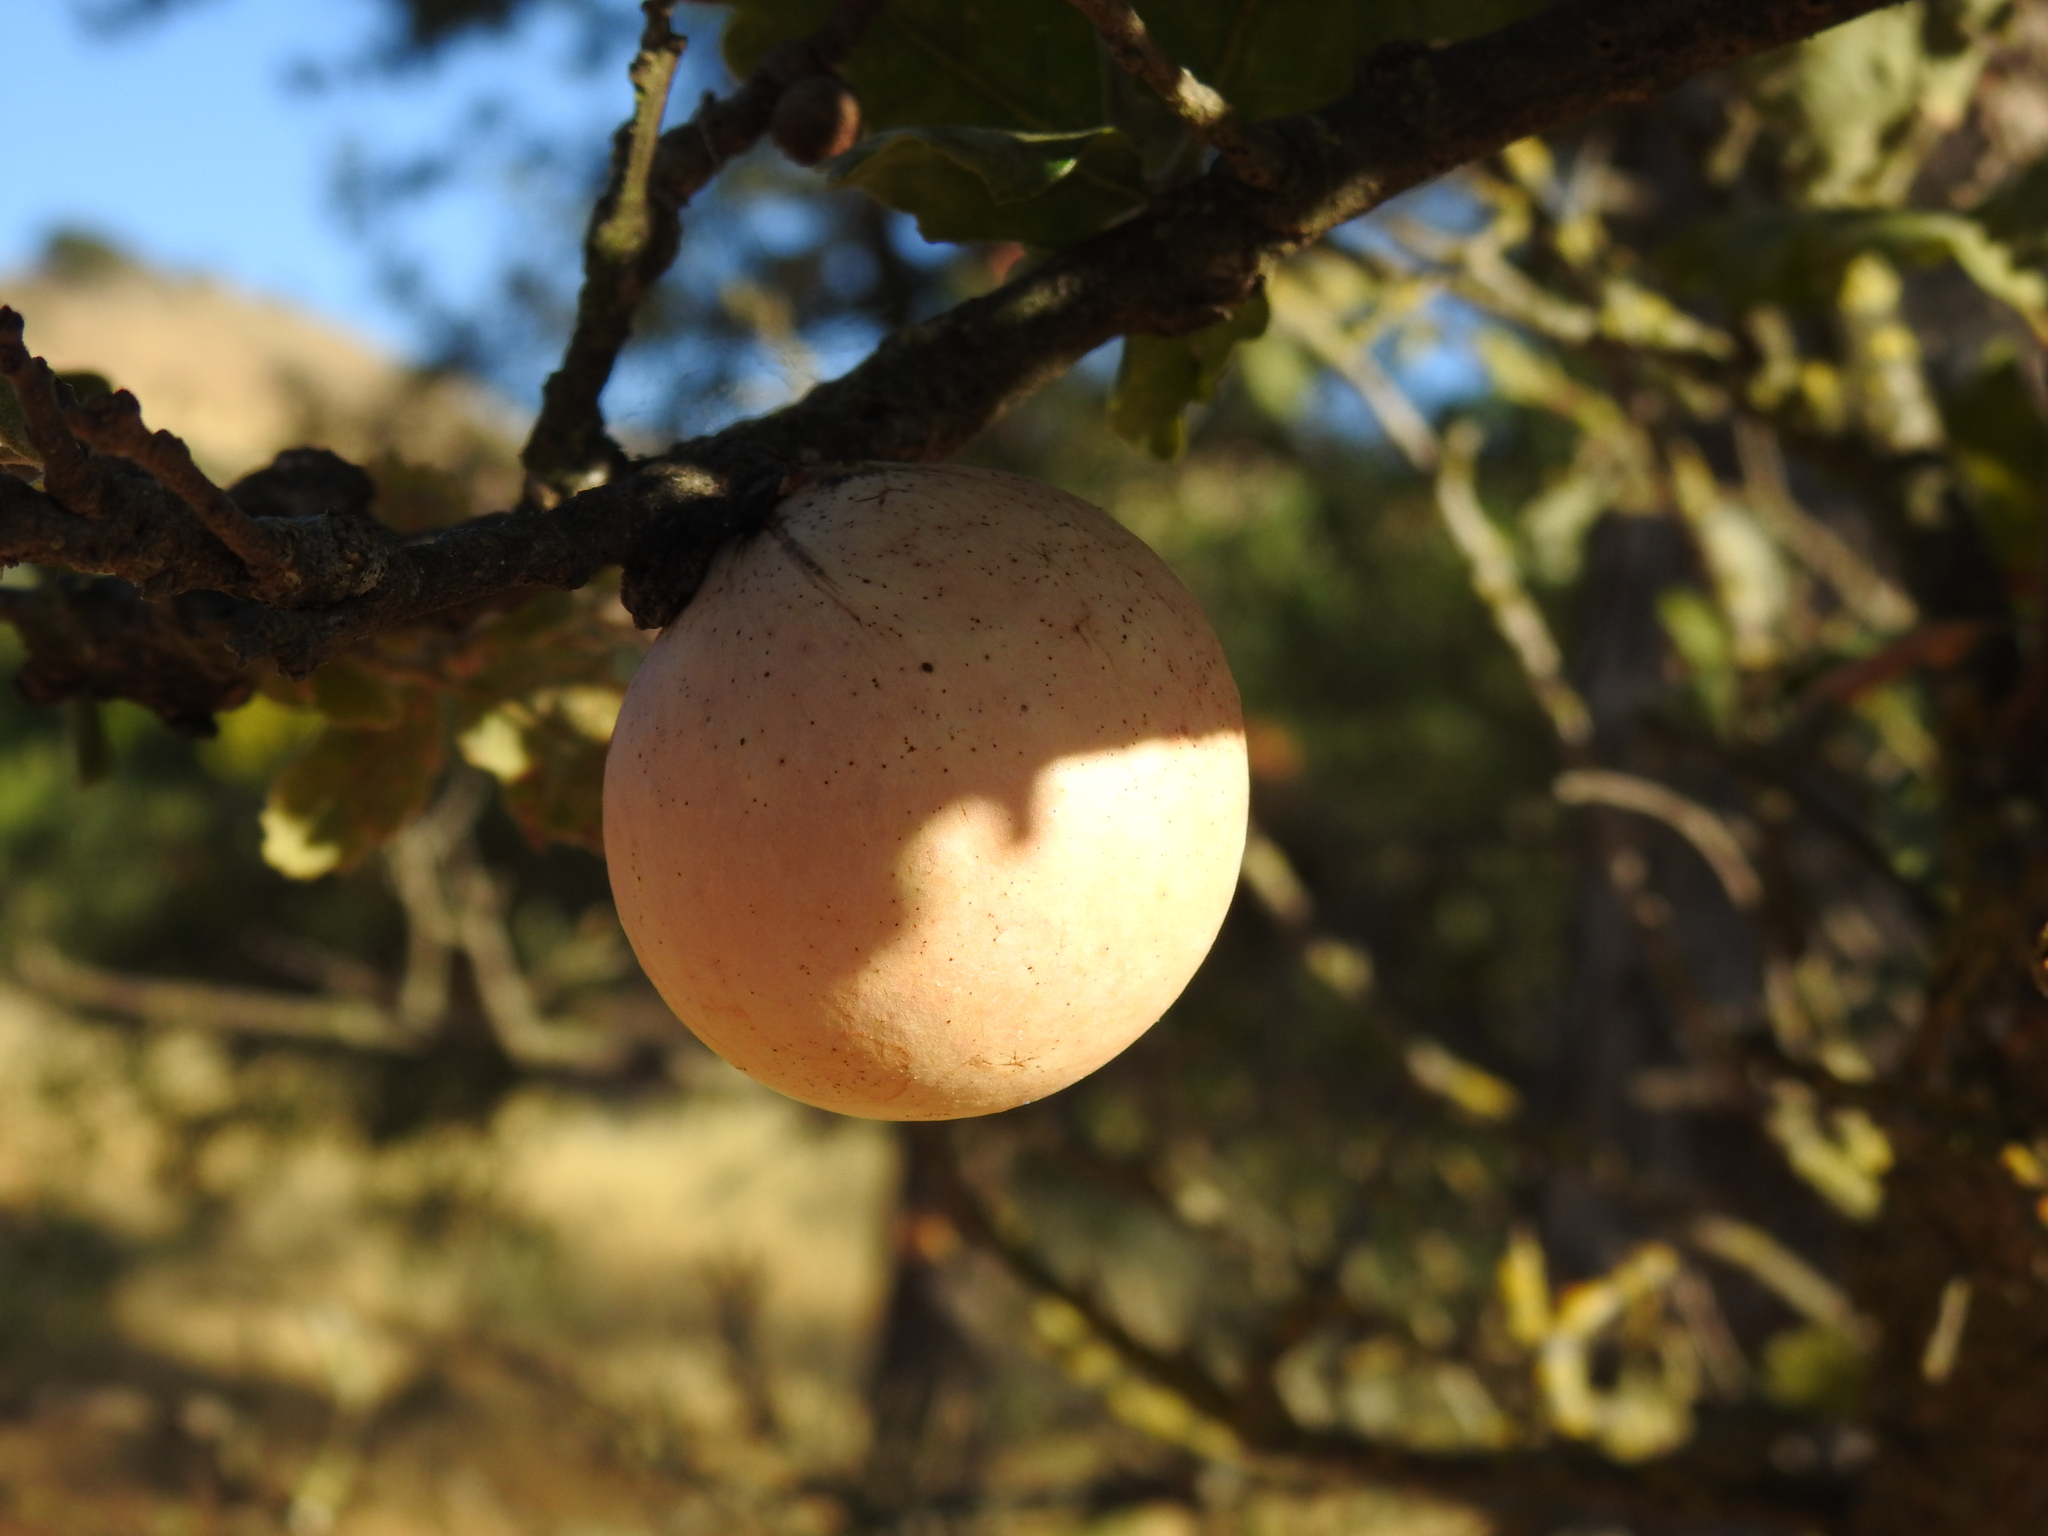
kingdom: Animalia
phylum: Arthropoda
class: Insecta
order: Hymenoptera
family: Cynipidae
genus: Andricus
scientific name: Andricus quercuscalifornicus
